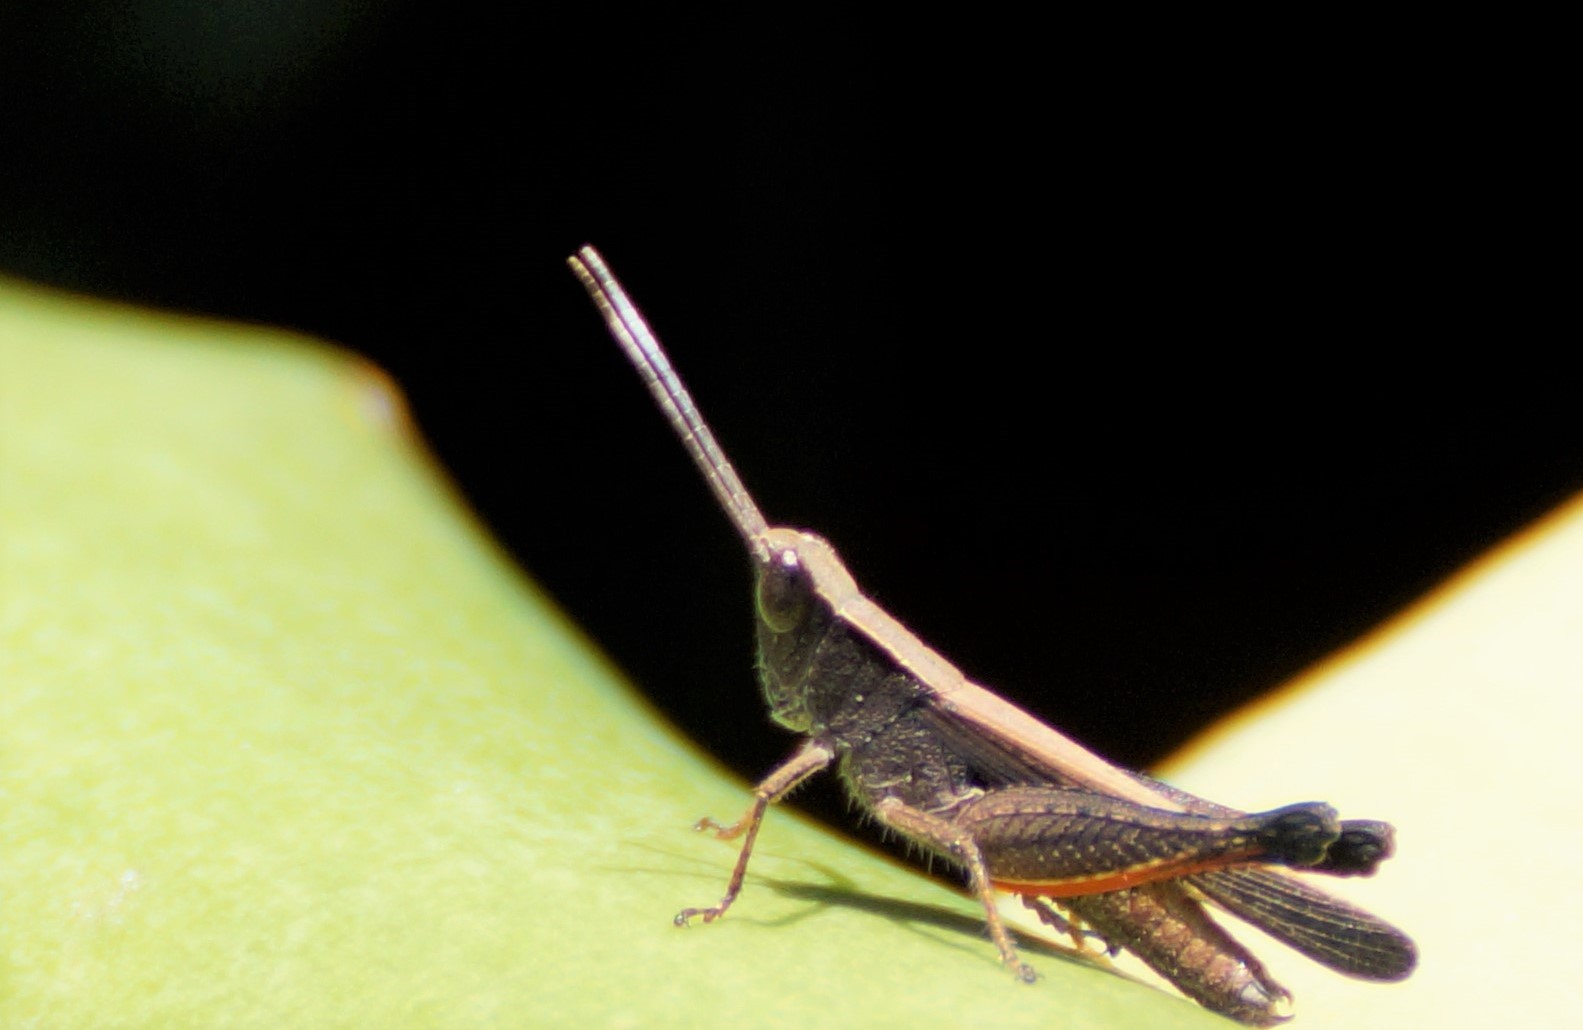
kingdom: Animalia
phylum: Arthropoda
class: Insecta
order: Orthoptera
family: Acrididae
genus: Rectitropis
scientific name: Rectitropis
